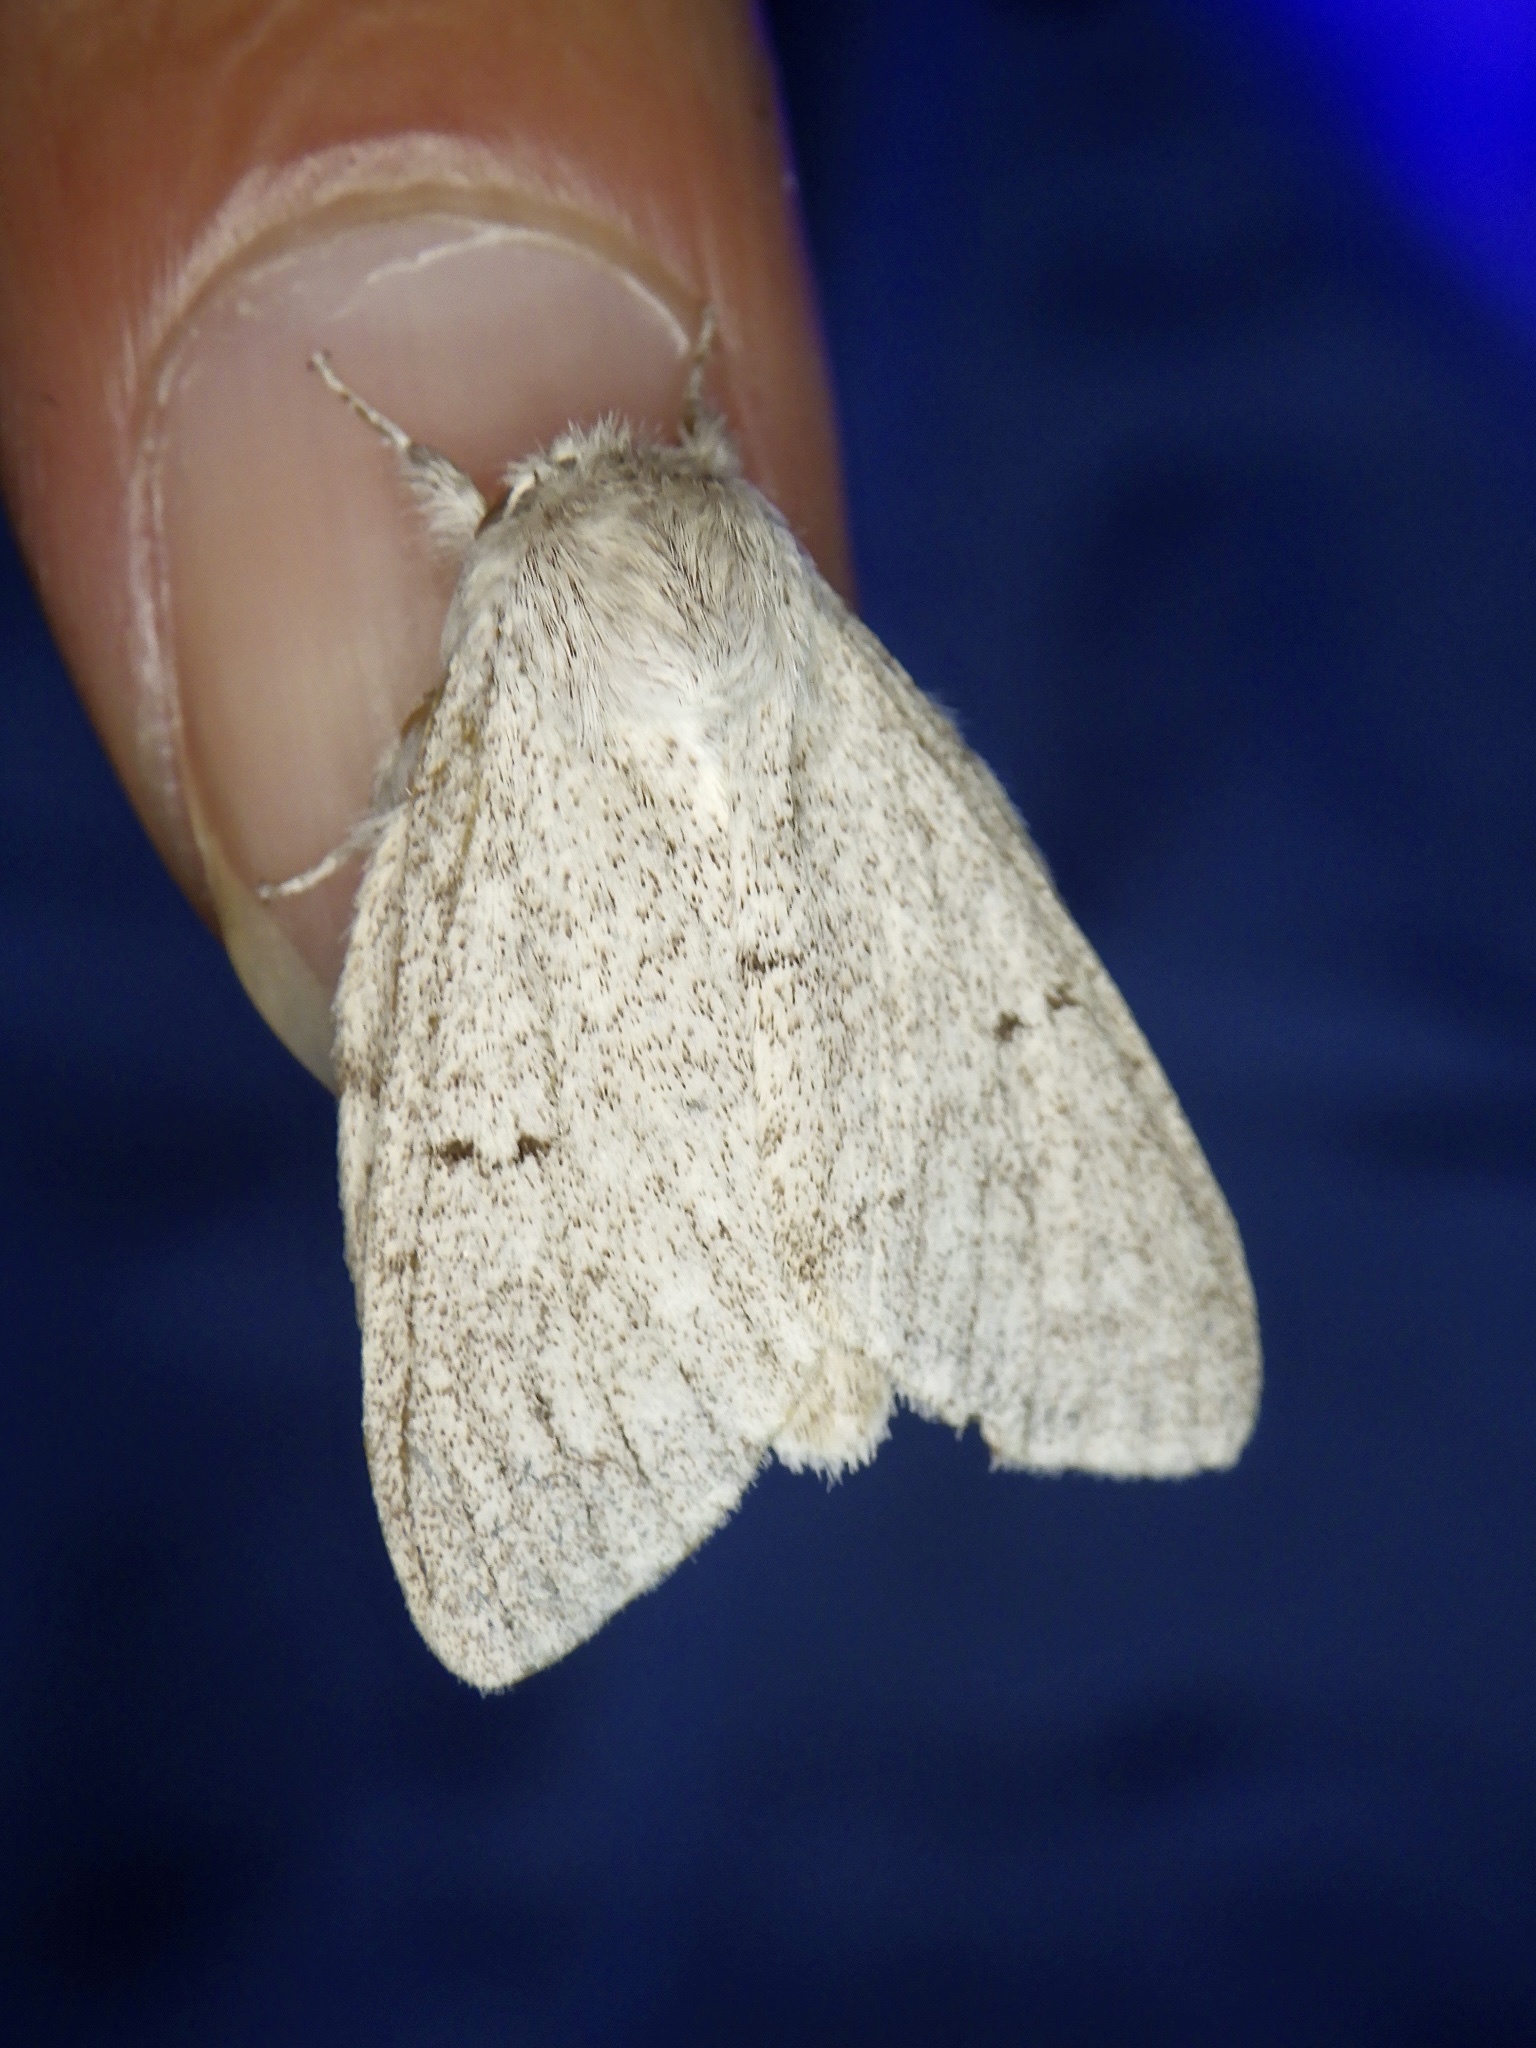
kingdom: Animalia
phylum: Arthropoda
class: Insecta
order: Lepidoptera
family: Notodontidae
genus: Cnethodonta
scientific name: Cnethodonta grisescens
